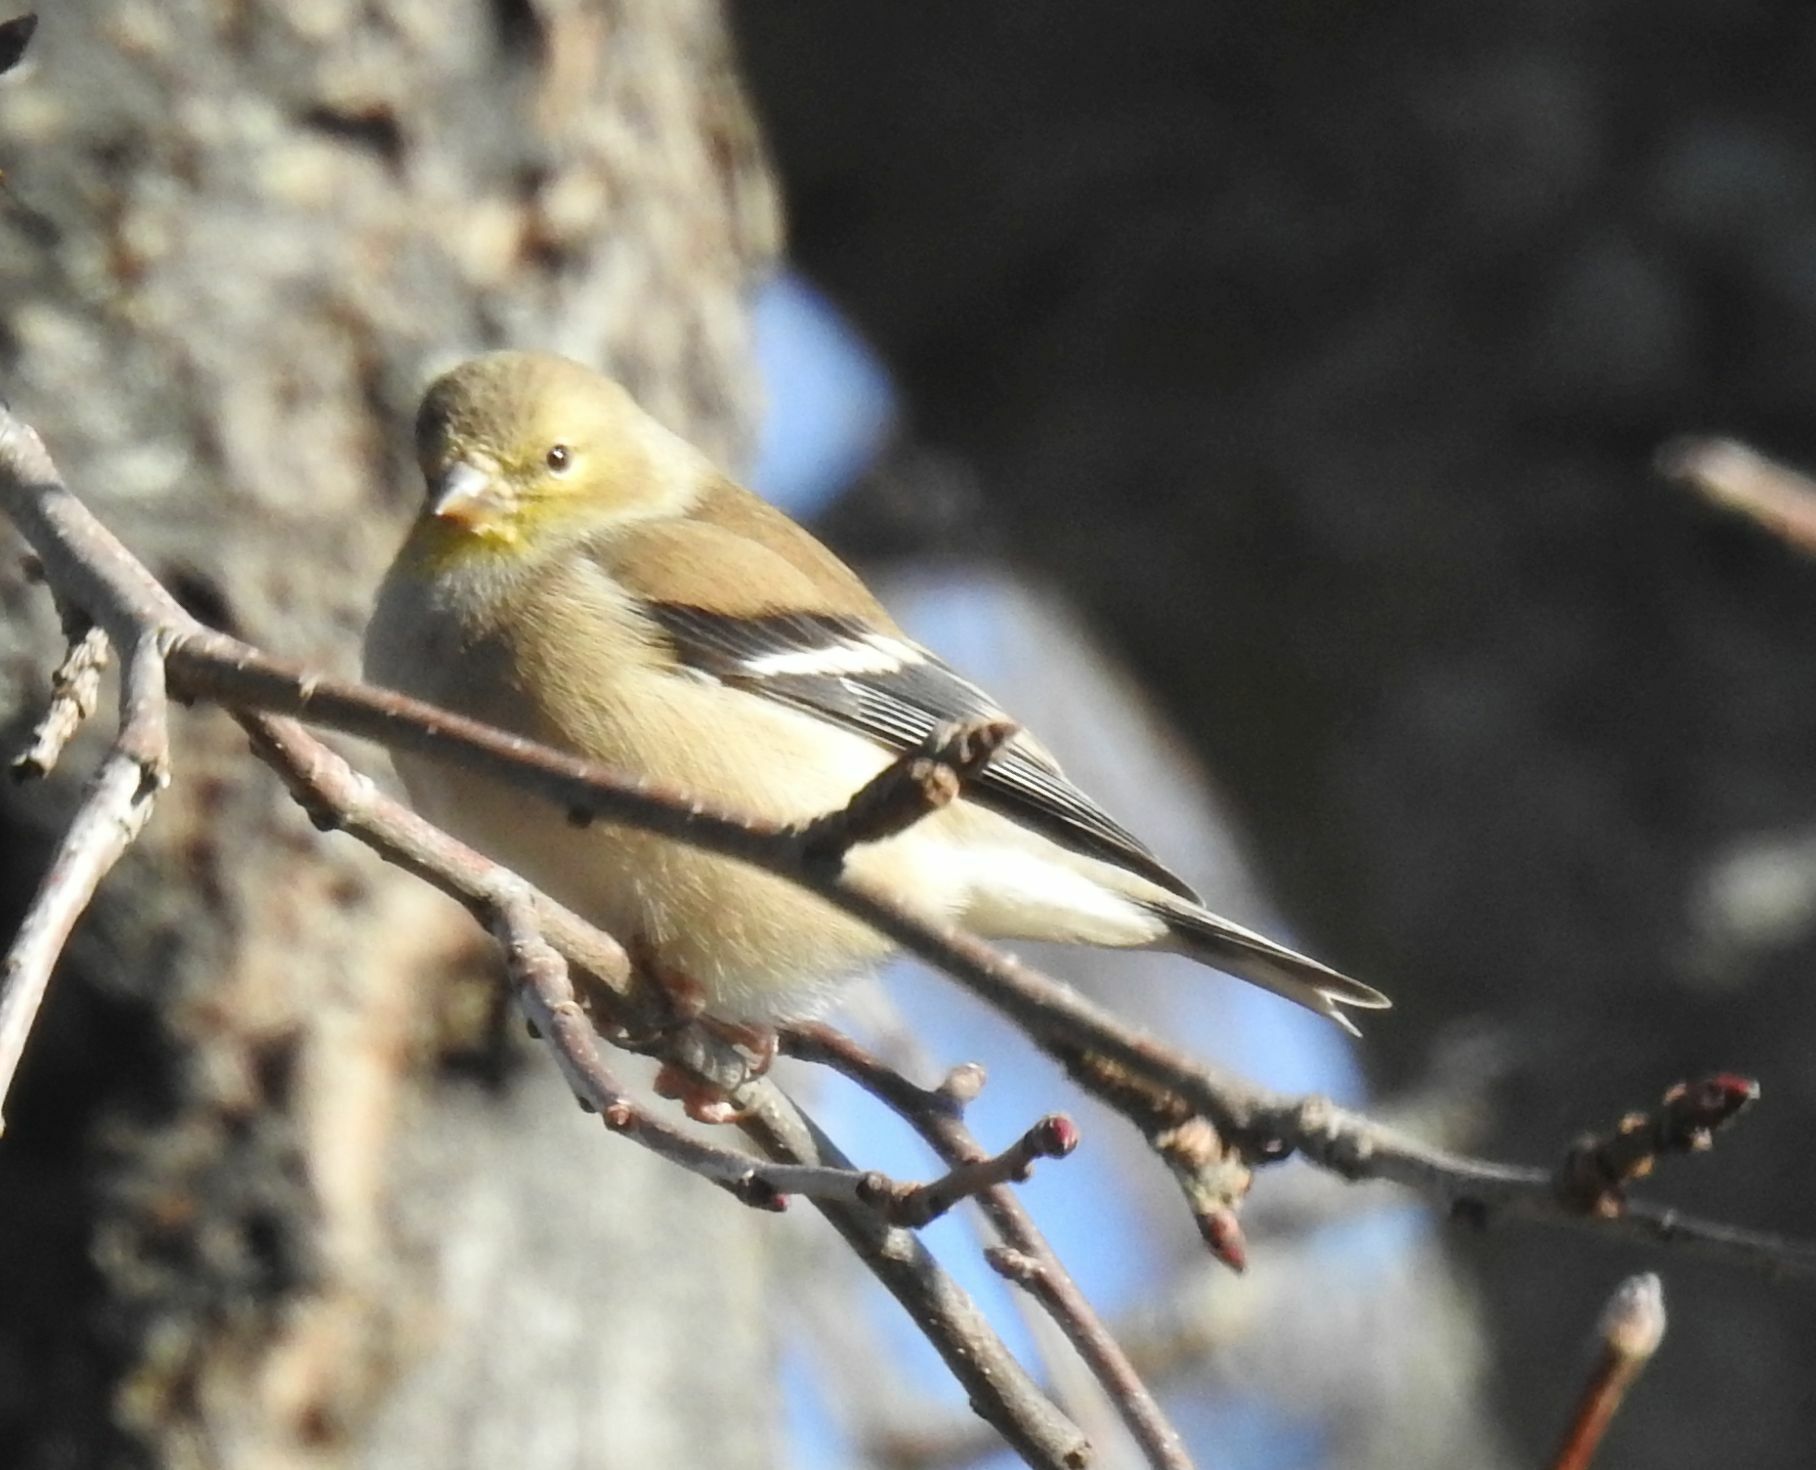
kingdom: Animalia
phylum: Chordata
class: Aves
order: Passeriformes
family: Fringillidae
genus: Spinus
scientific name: Spinus tristis
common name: American goldfinch
